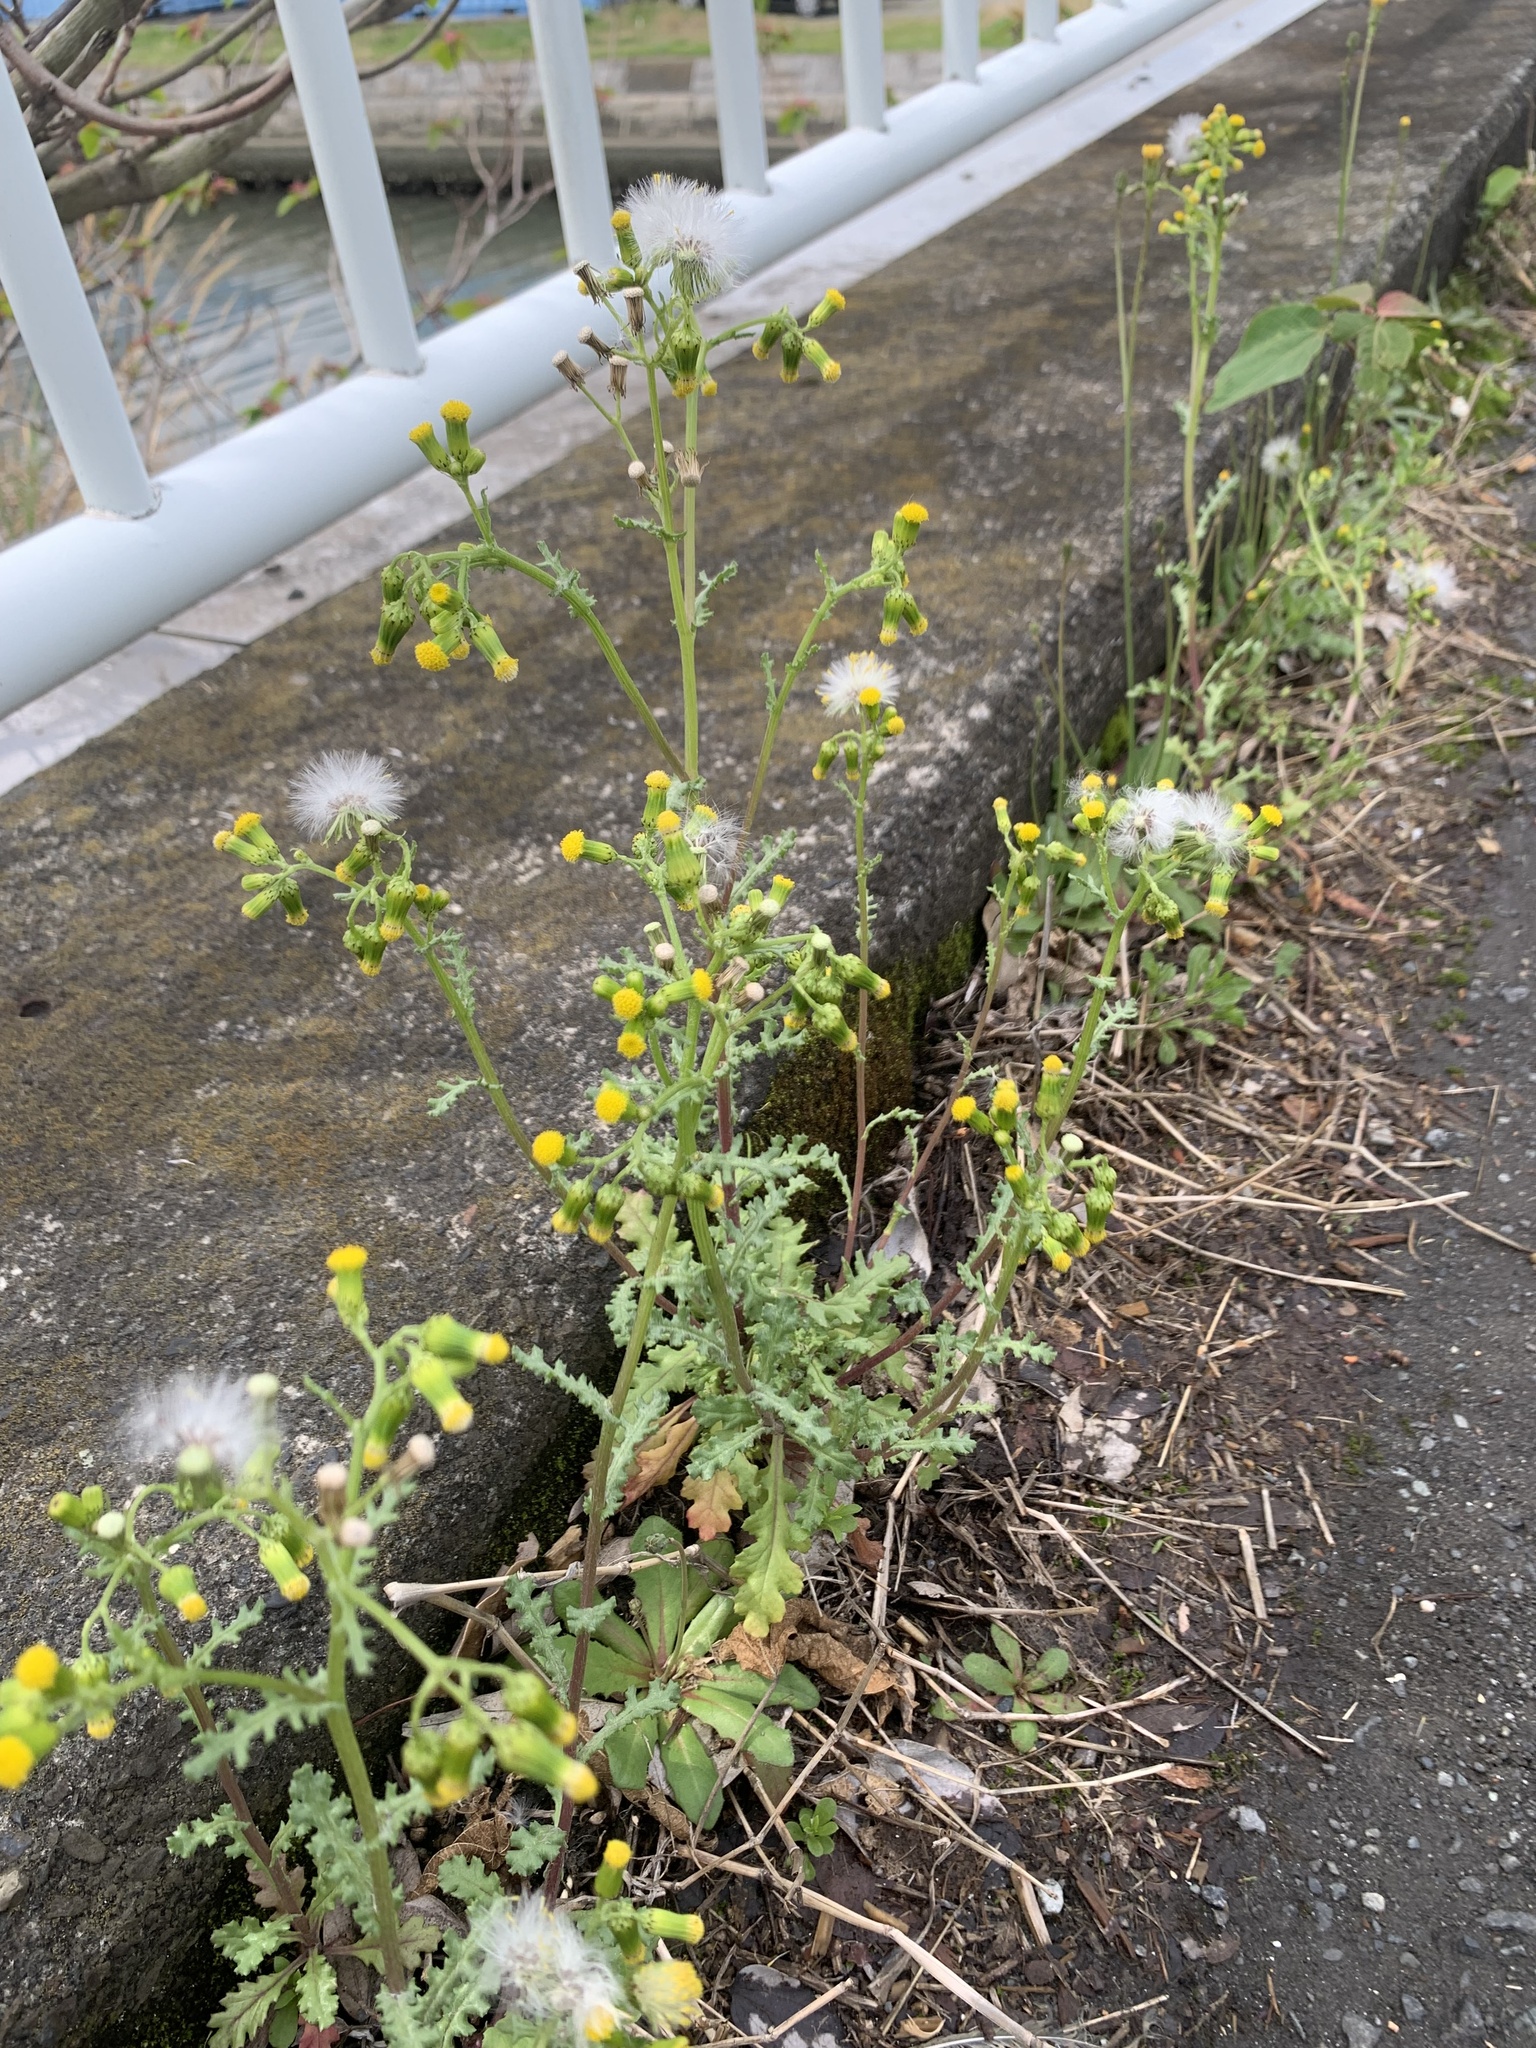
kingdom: Plantae
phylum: Tracheophyta
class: Magnoliopsida
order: Asterales
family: Asteraceae
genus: Senecio
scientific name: Senecio vulgaris
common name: Old-man-in-the-spring
